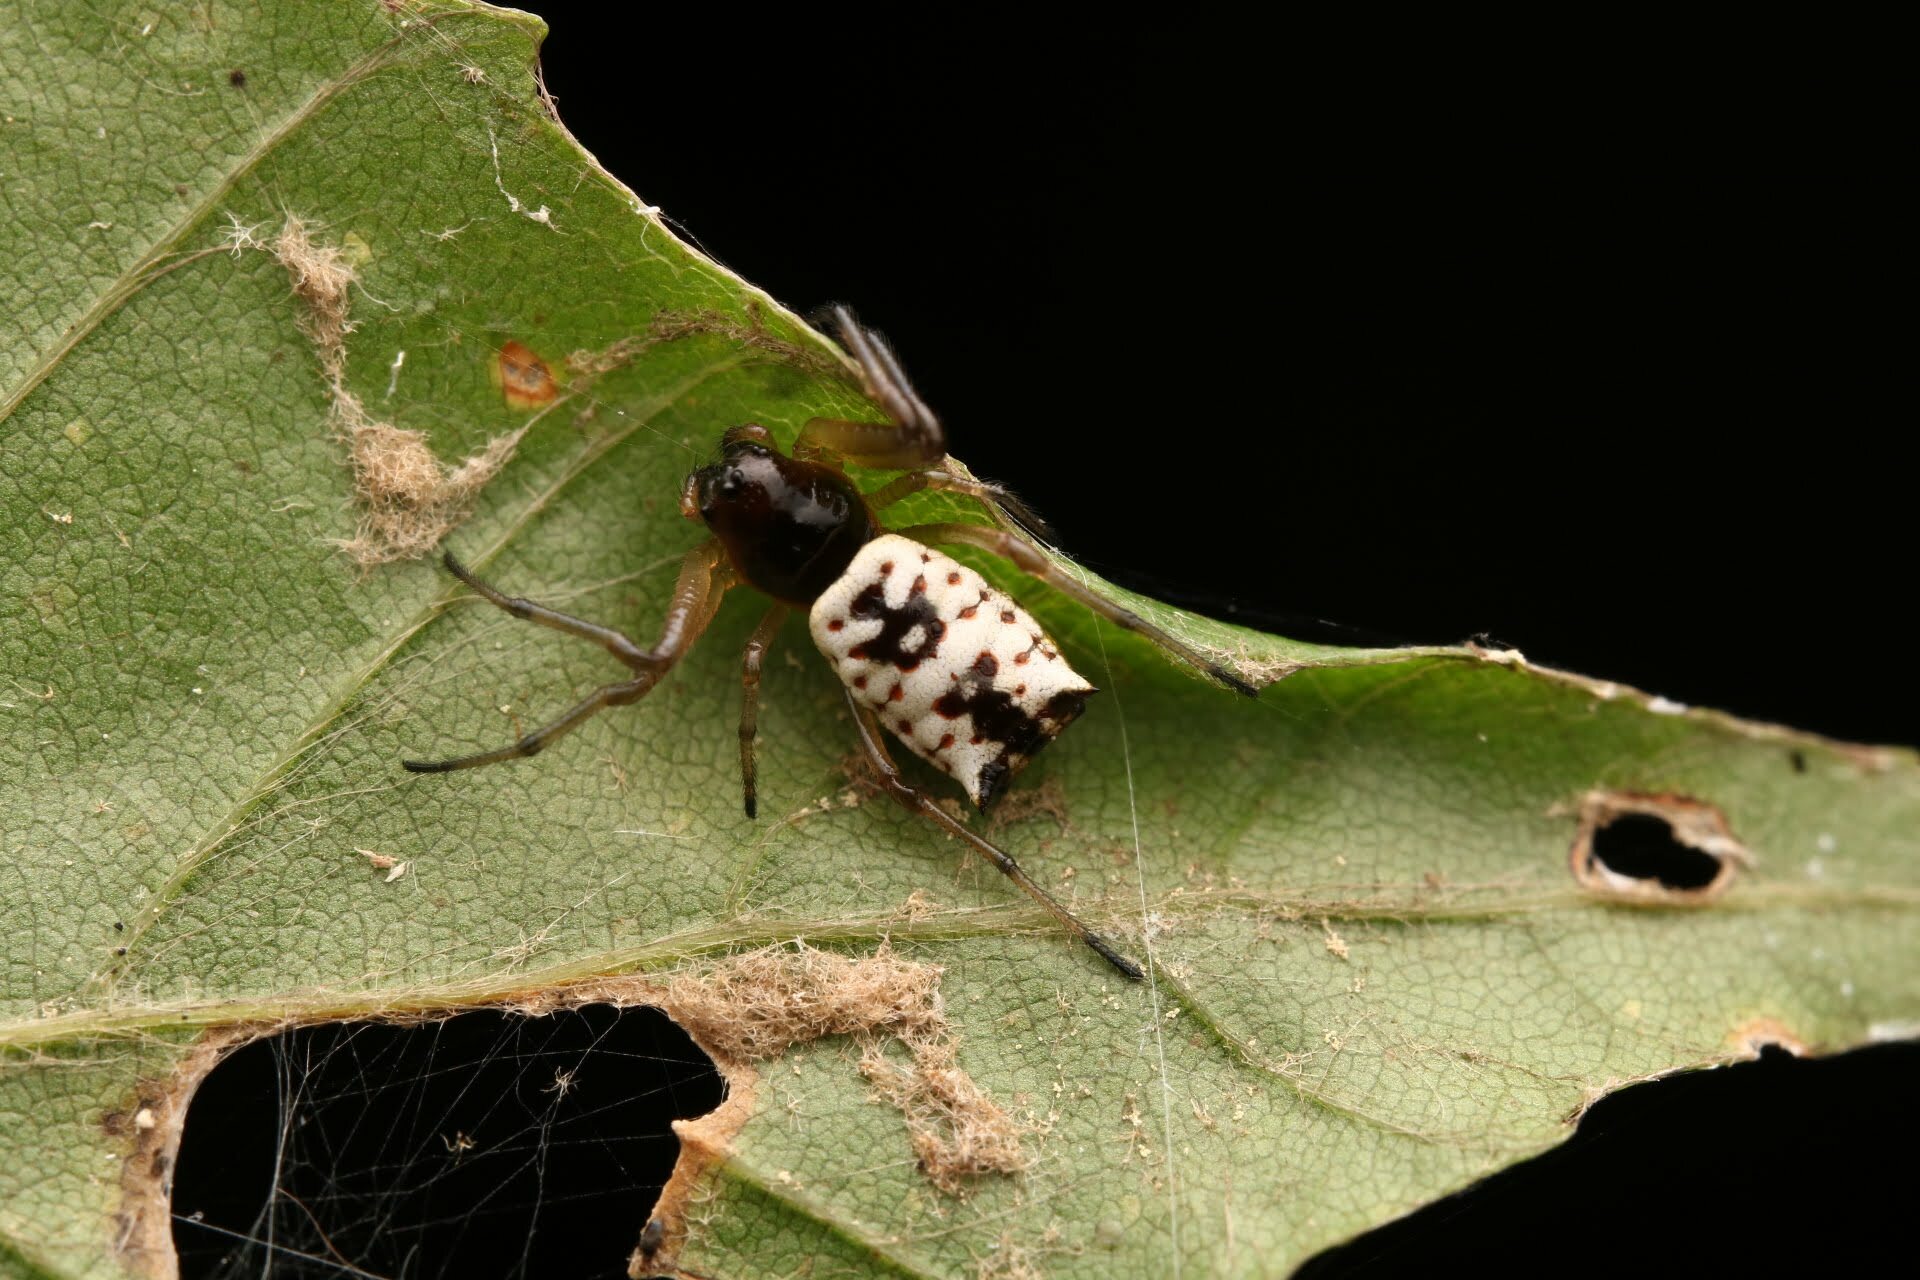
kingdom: Animalia
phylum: Arthropoda
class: Arachnida
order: Araneae
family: Araneidae
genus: Micrathena
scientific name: Micrathena mitrata
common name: Orb weavers
